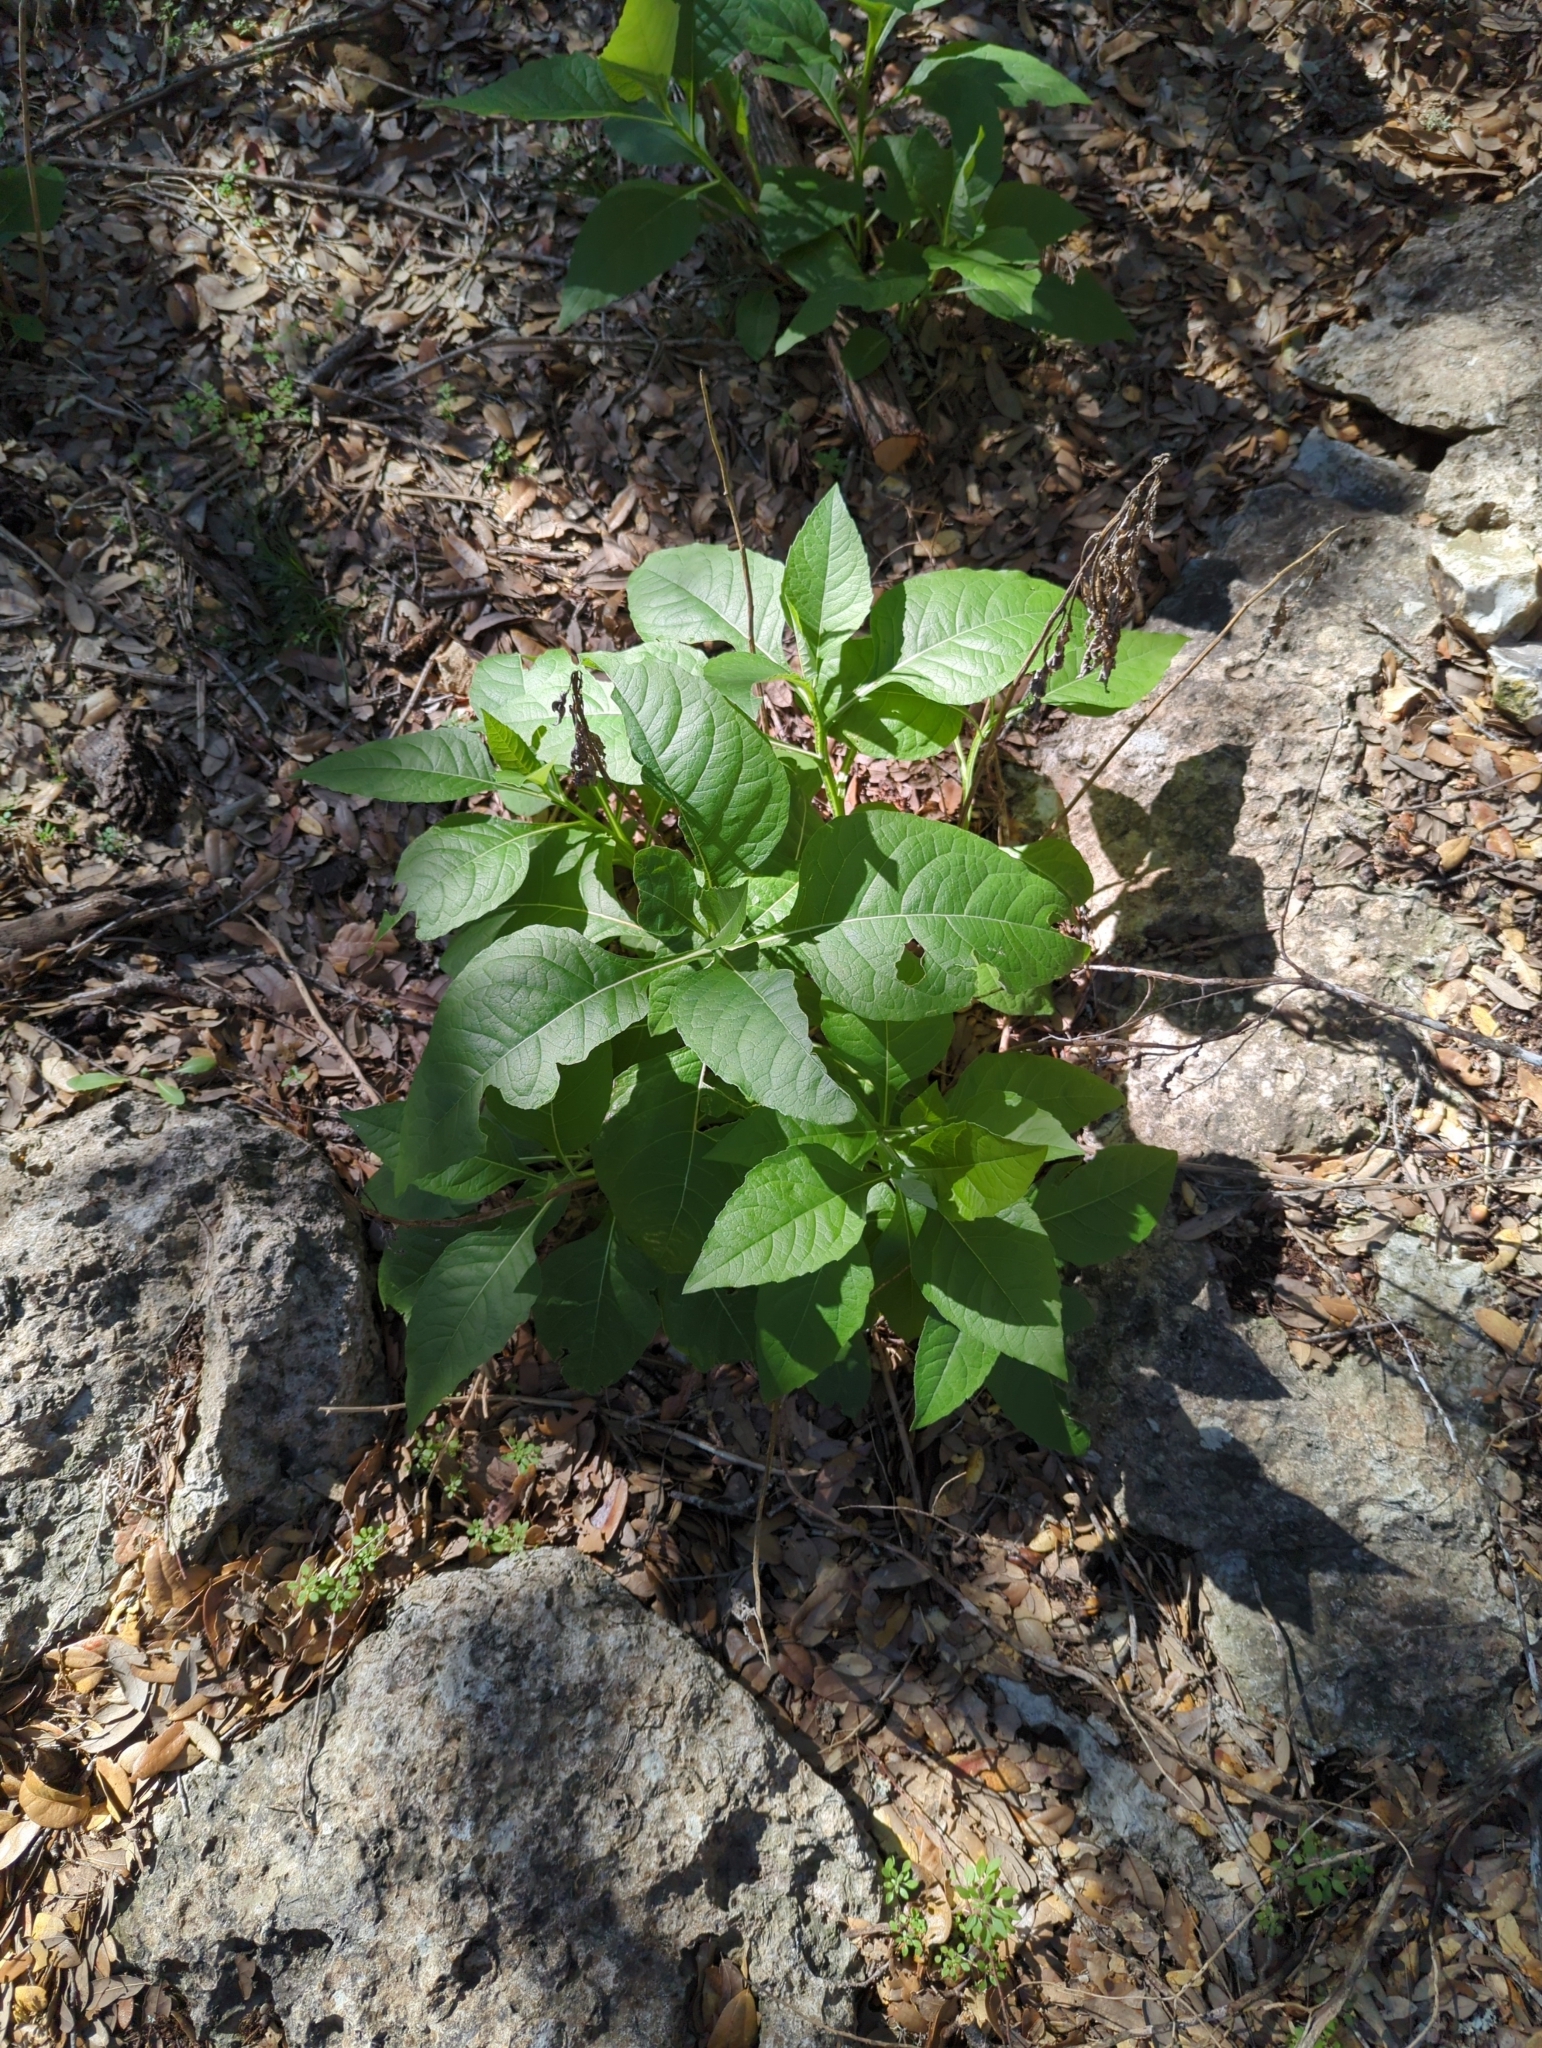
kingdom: Plantae
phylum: Tracheophyta
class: Magnoliopsida
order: Asterales
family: Asteraceae
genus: Verbesina
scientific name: Verbesina virginica
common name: Frostweed
